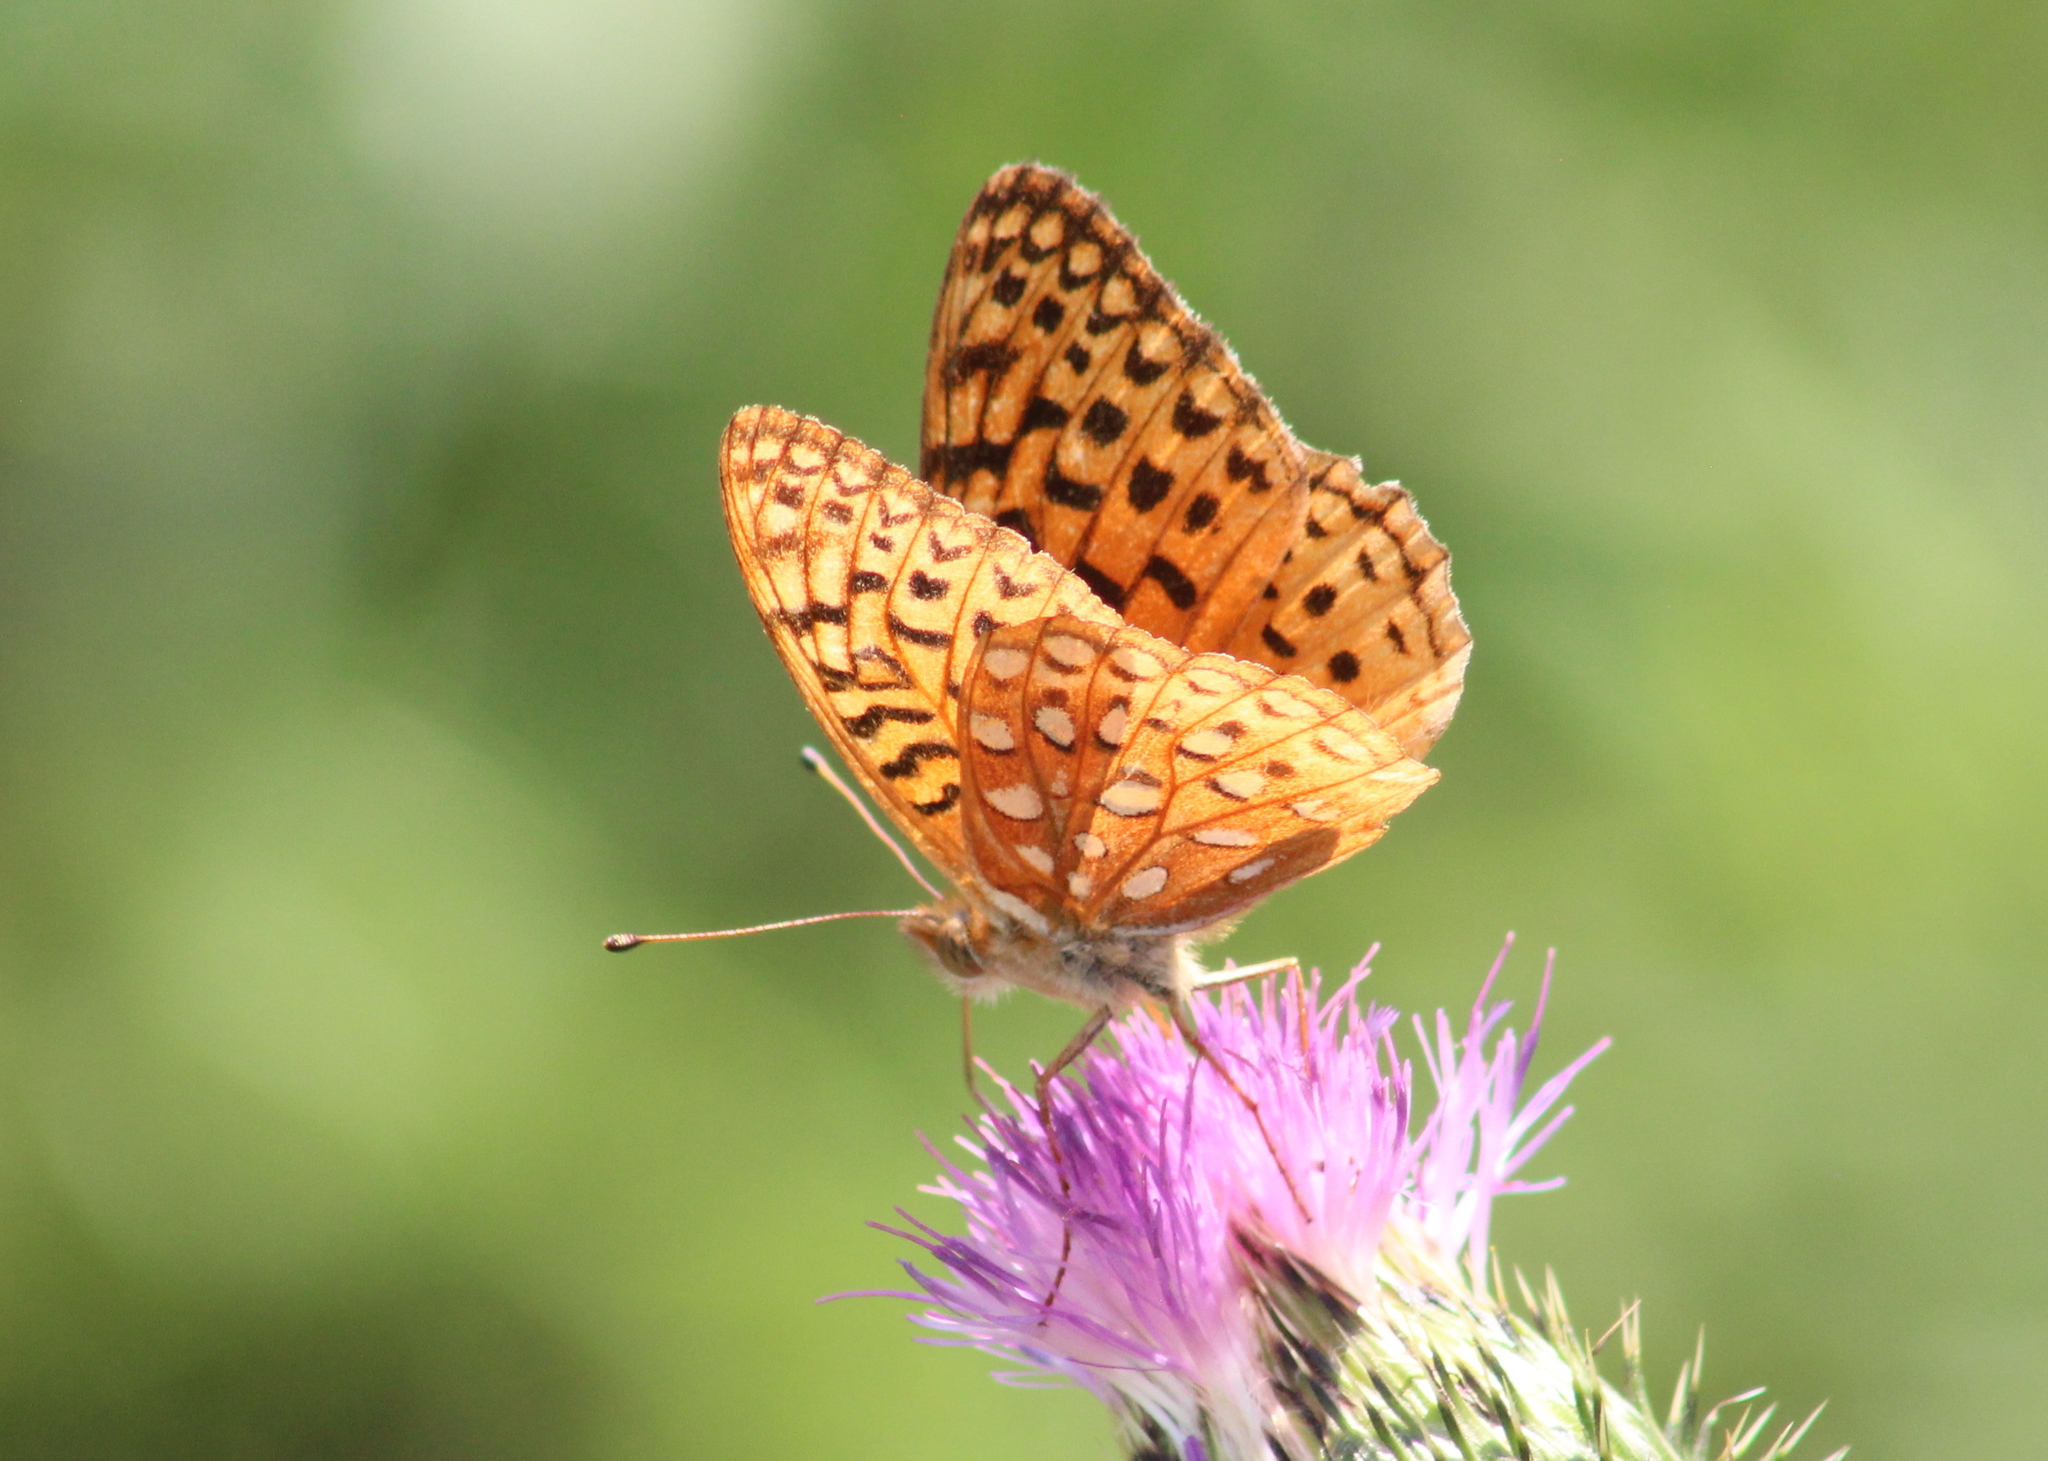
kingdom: Animalia
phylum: Arthropoda
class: Insecta
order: Lepidoptera
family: Nymphalidae
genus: Speyeria
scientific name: Speyeria aphrodite
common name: Aphrodite friitllary
